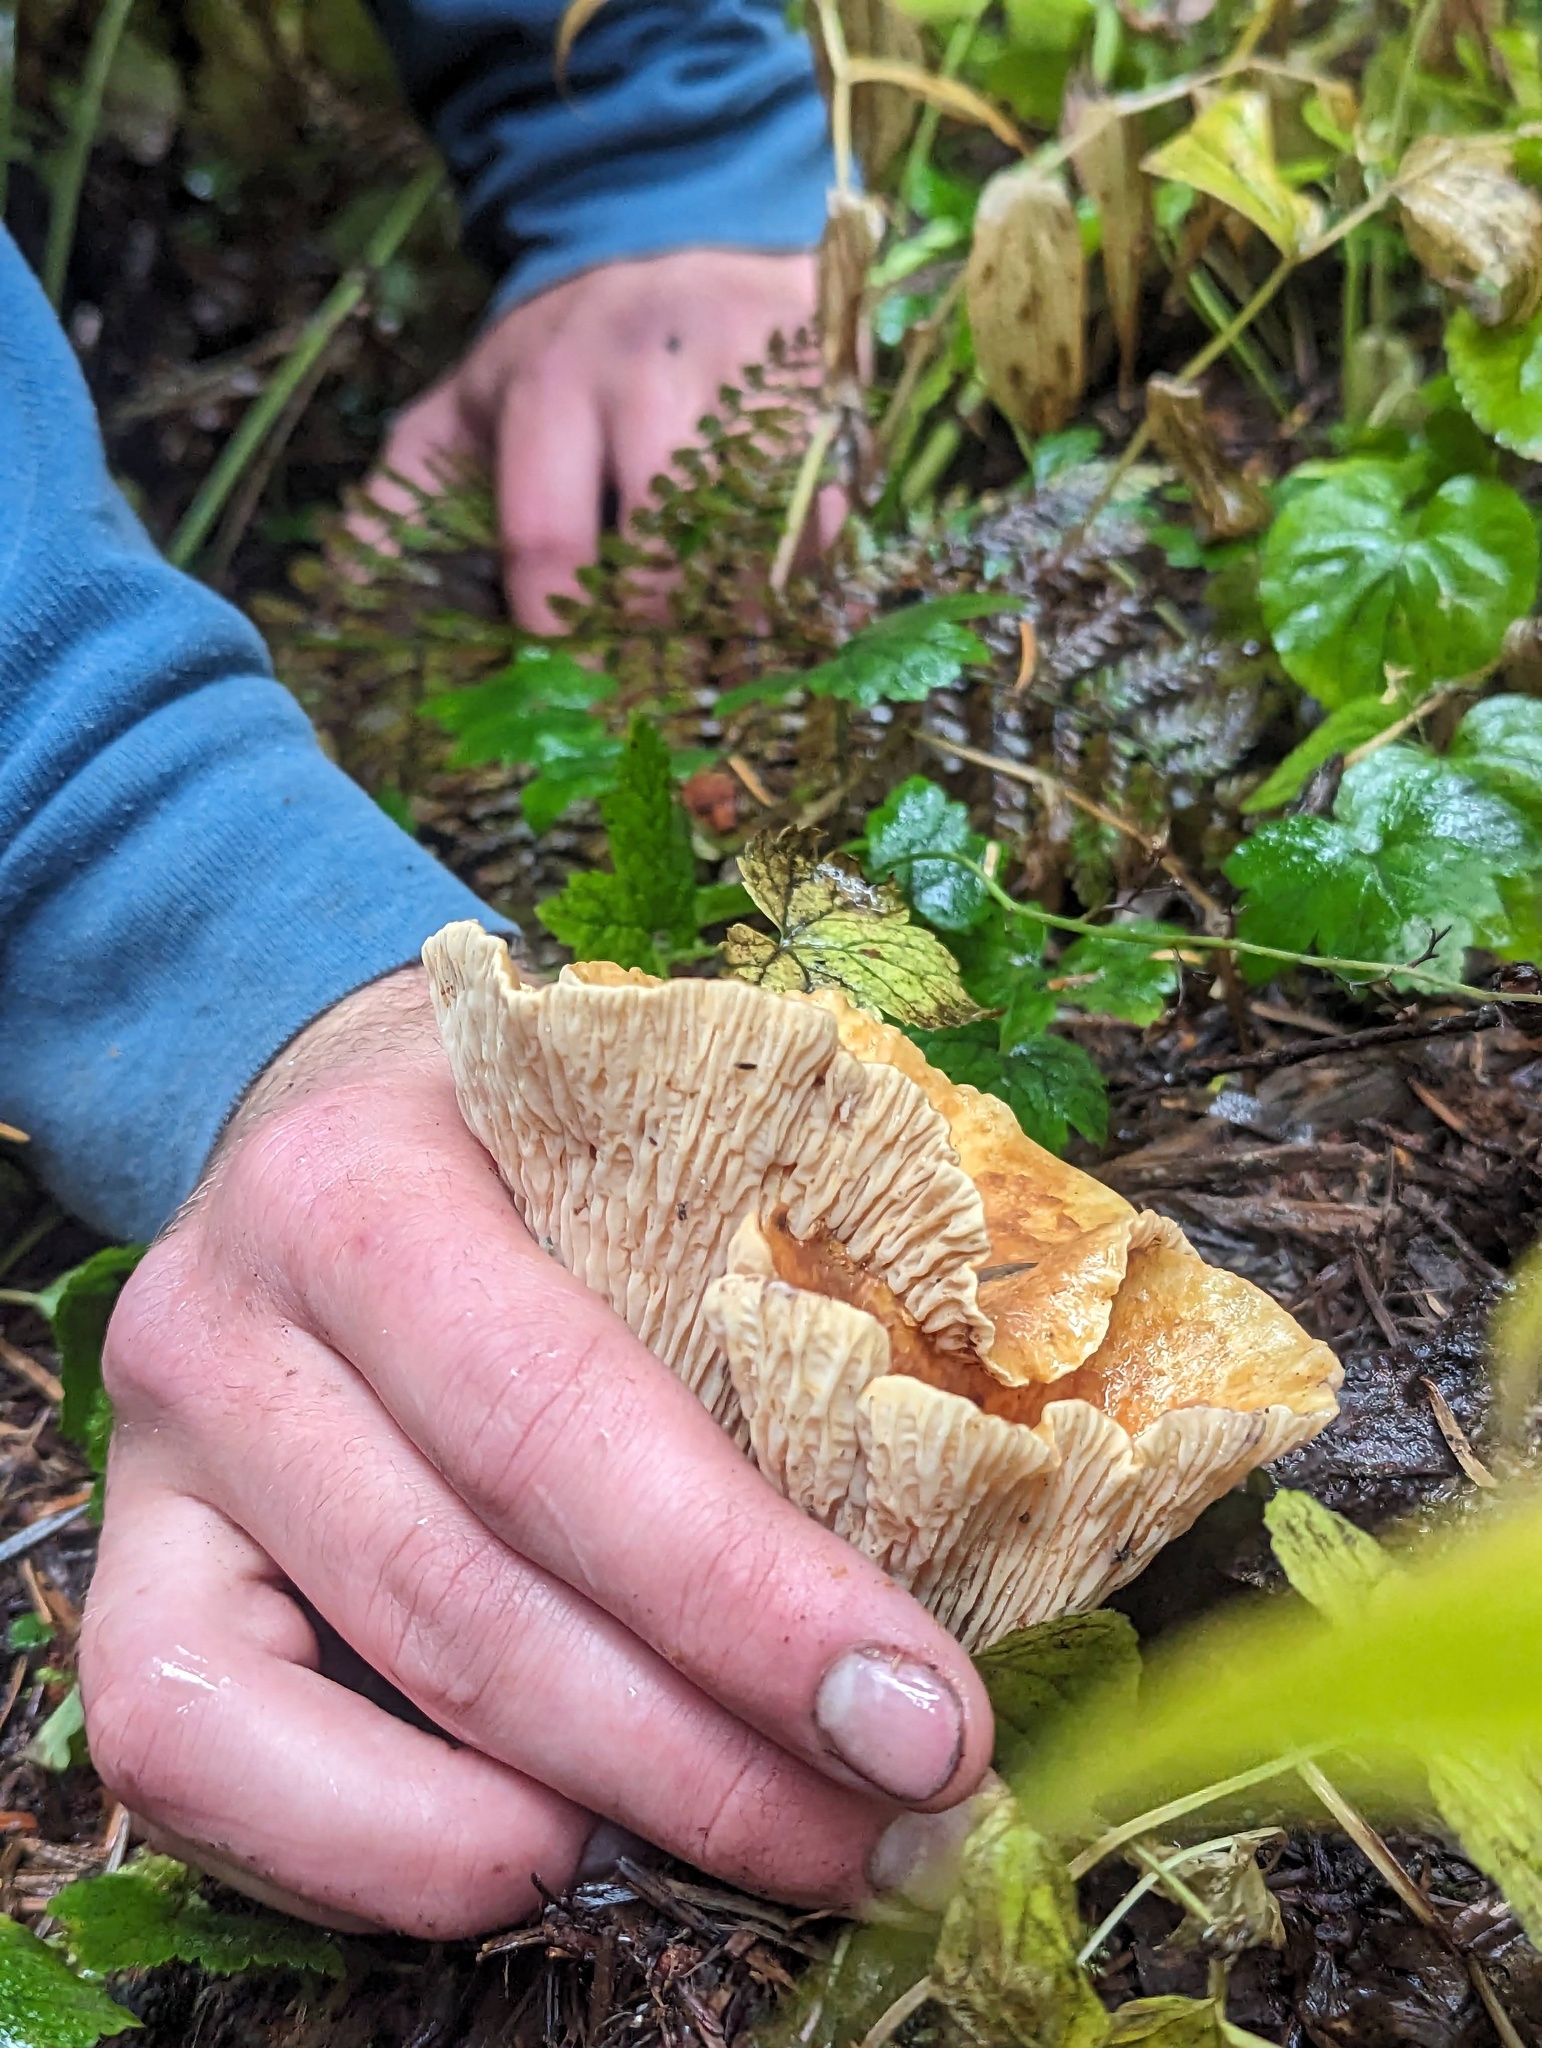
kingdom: Fungi
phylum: Basidiomycota
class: Agaricomycetes
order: Gomphales
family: Gomphaceae
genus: Turbinellus
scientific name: Turbinellus floccosus
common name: Scaly chanterelle
